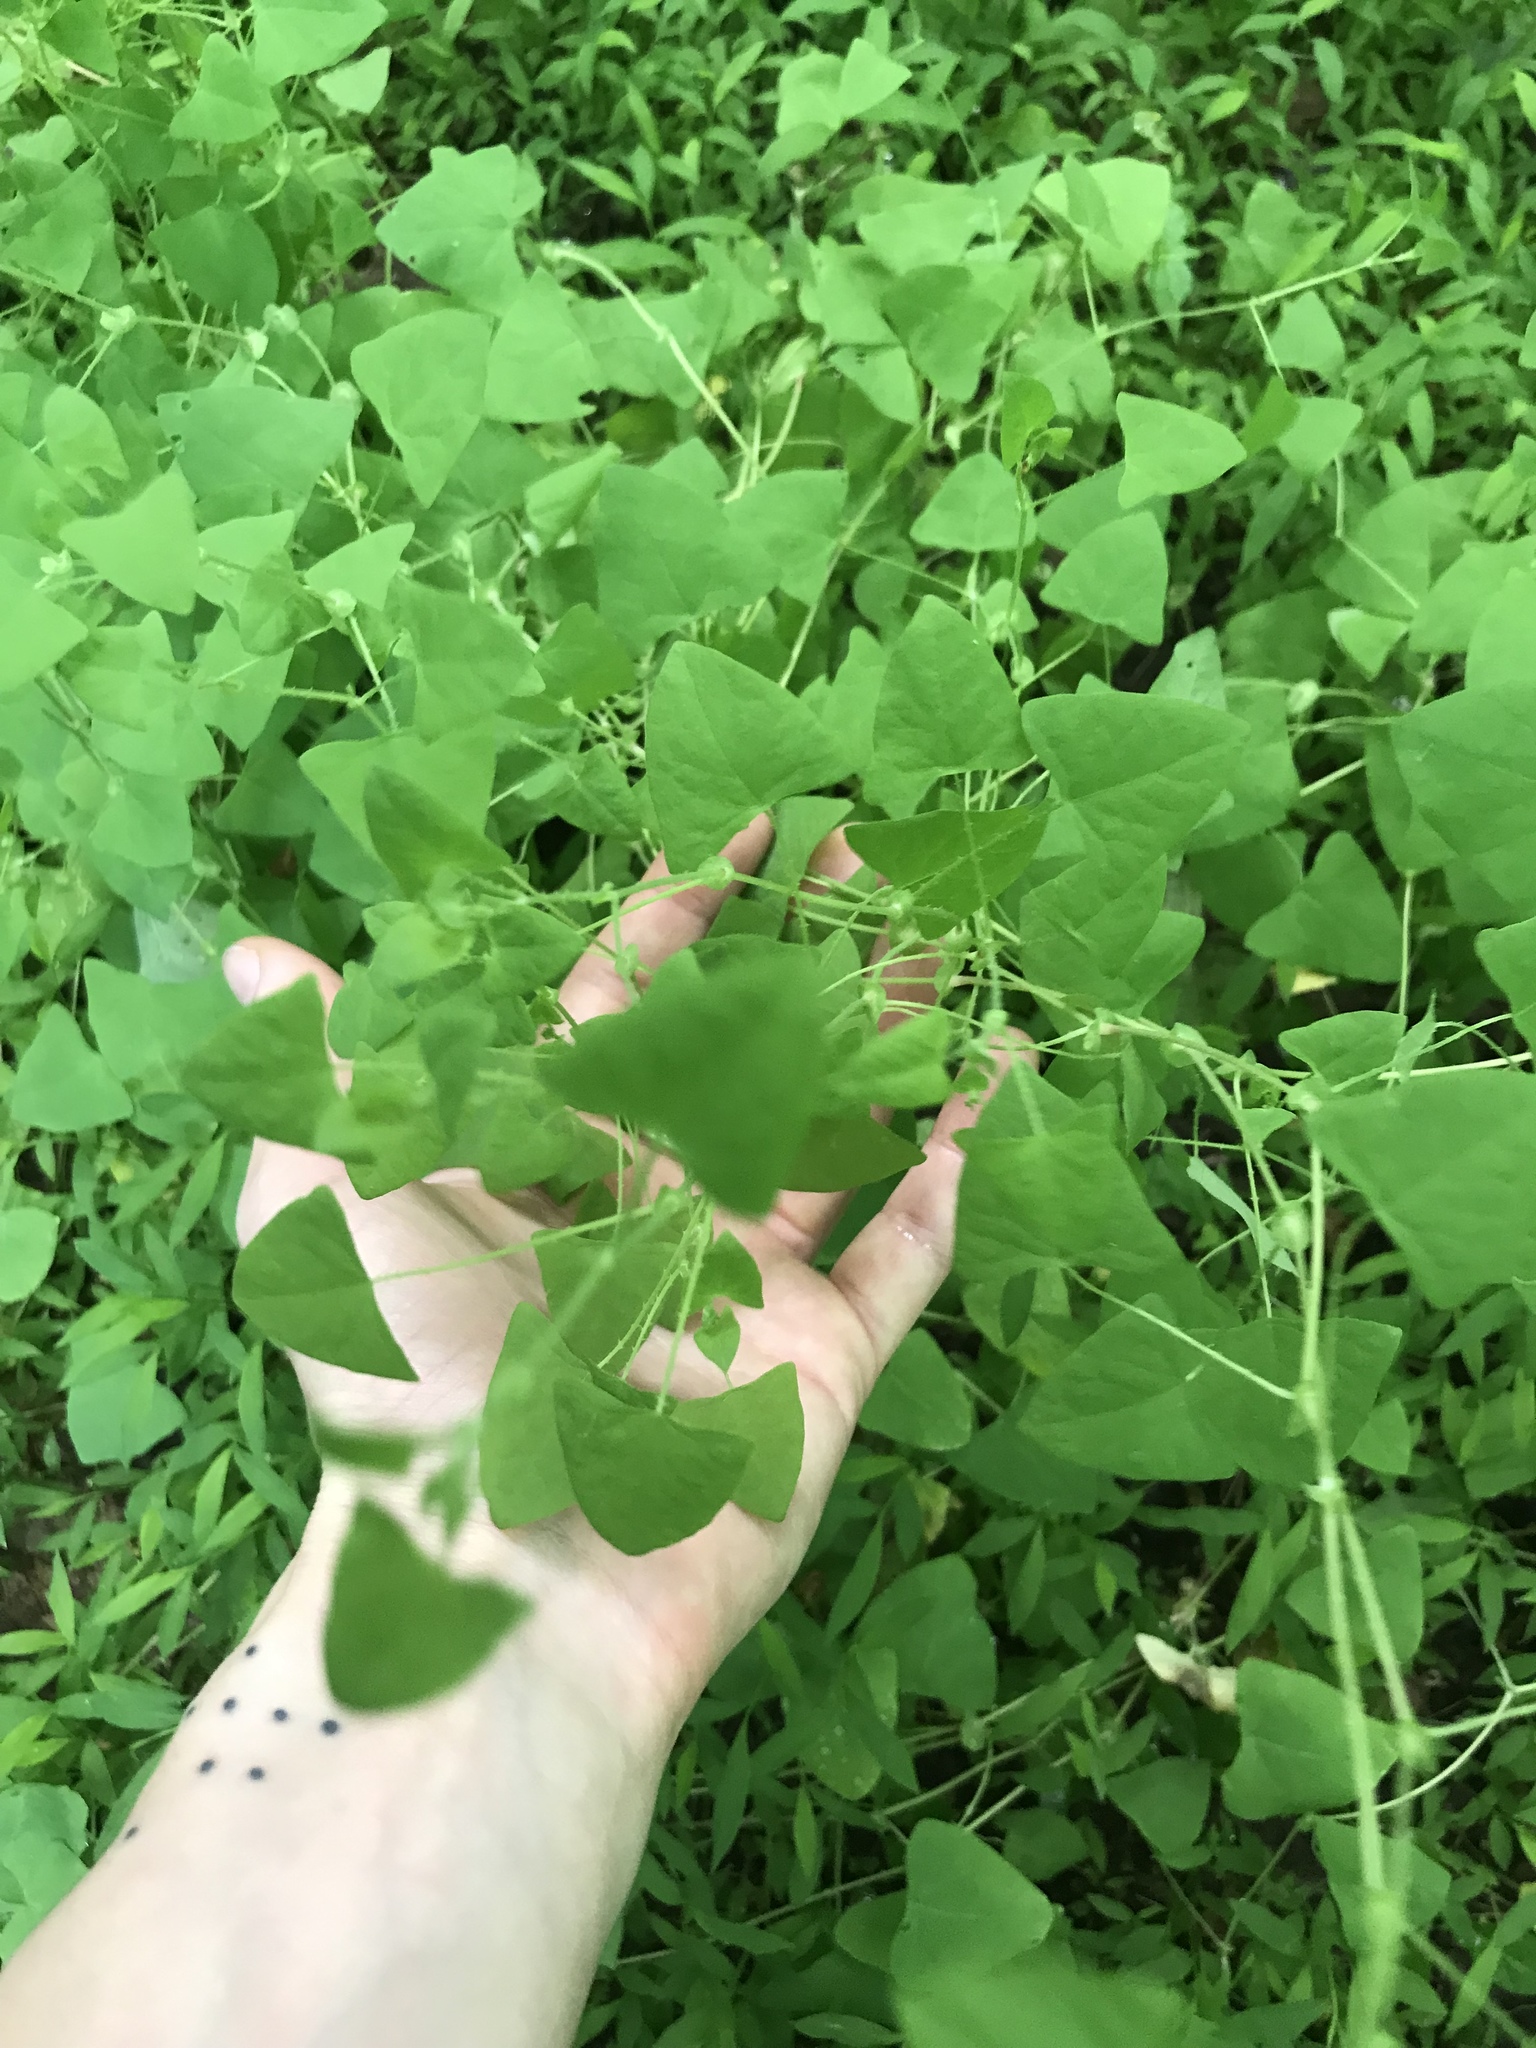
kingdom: Plantae
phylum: Tracheophyta
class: Magnoliopsida
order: Caryophyllales
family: Polygonaceae
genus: Persicaria
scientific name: Persicaria perfoliata
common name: Asiatic tearthumb
